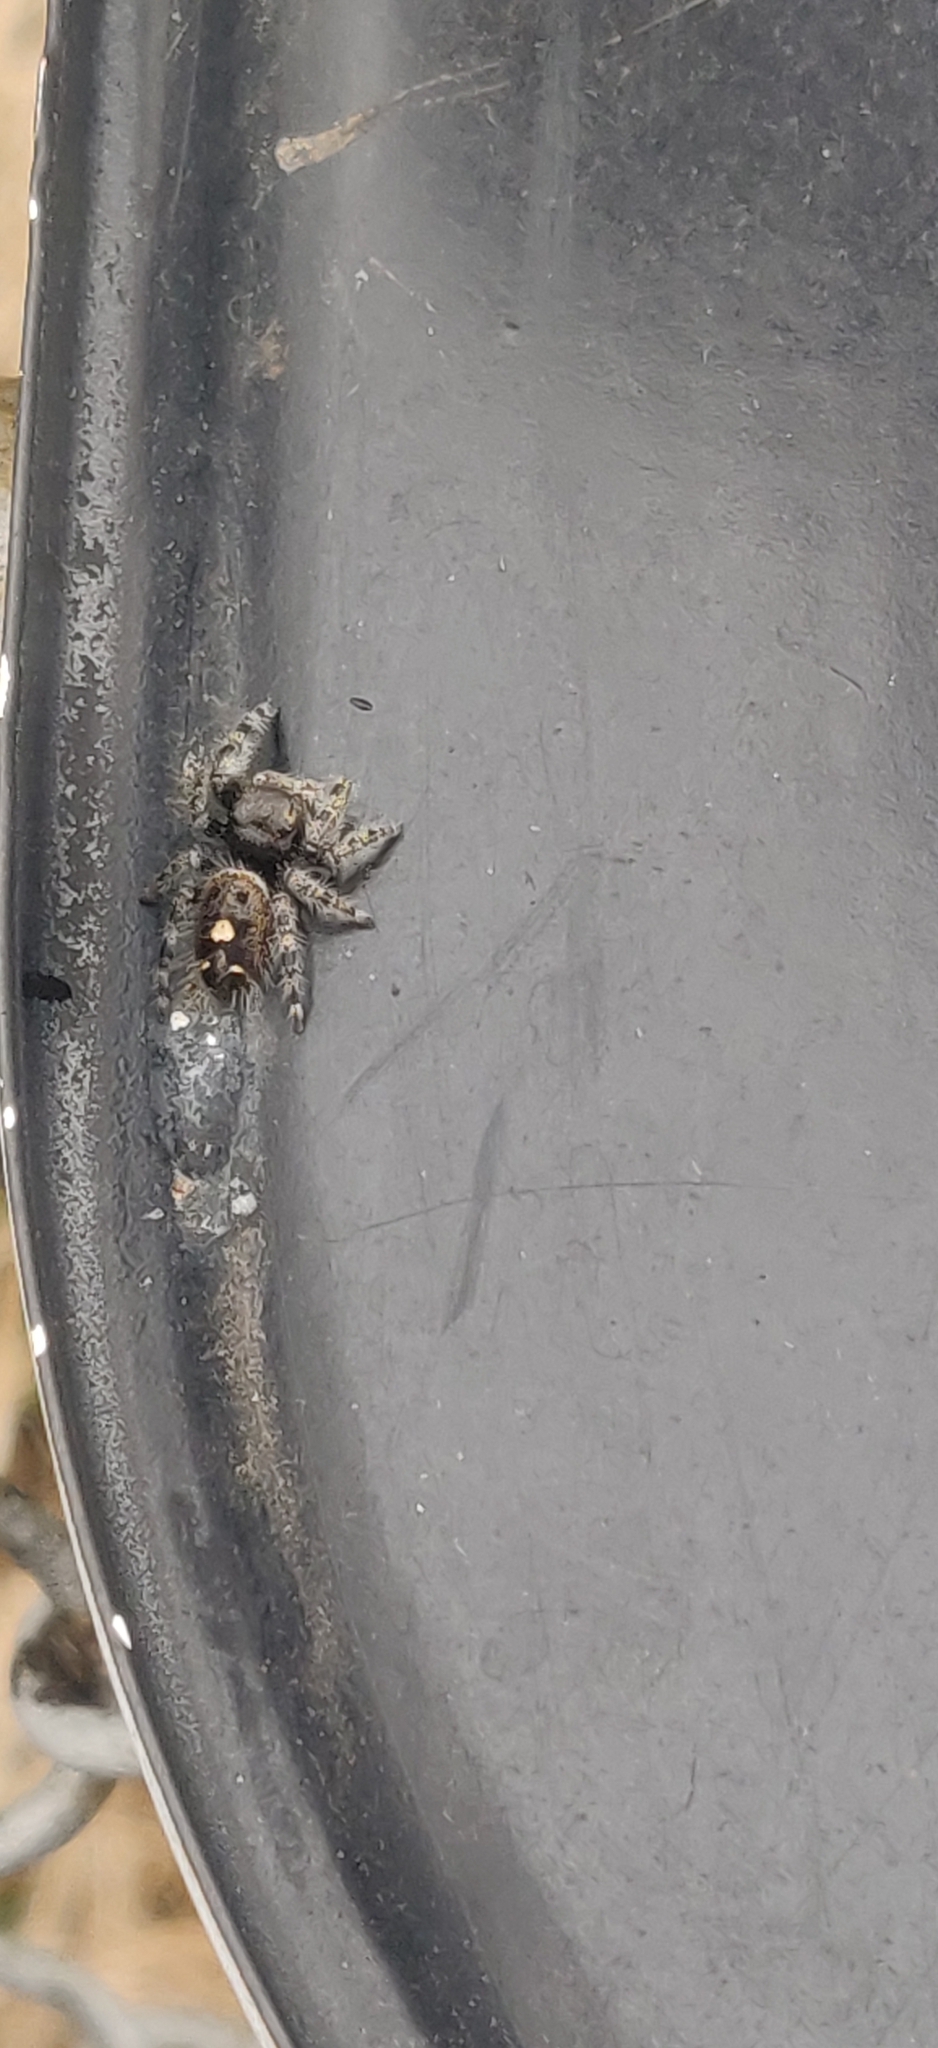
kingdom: Animalia
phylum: Arthropoda
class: Arachnida
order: Araneae
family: Salticidae
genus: Phidippus
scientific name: Phidippus audax
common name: Bold jumper
